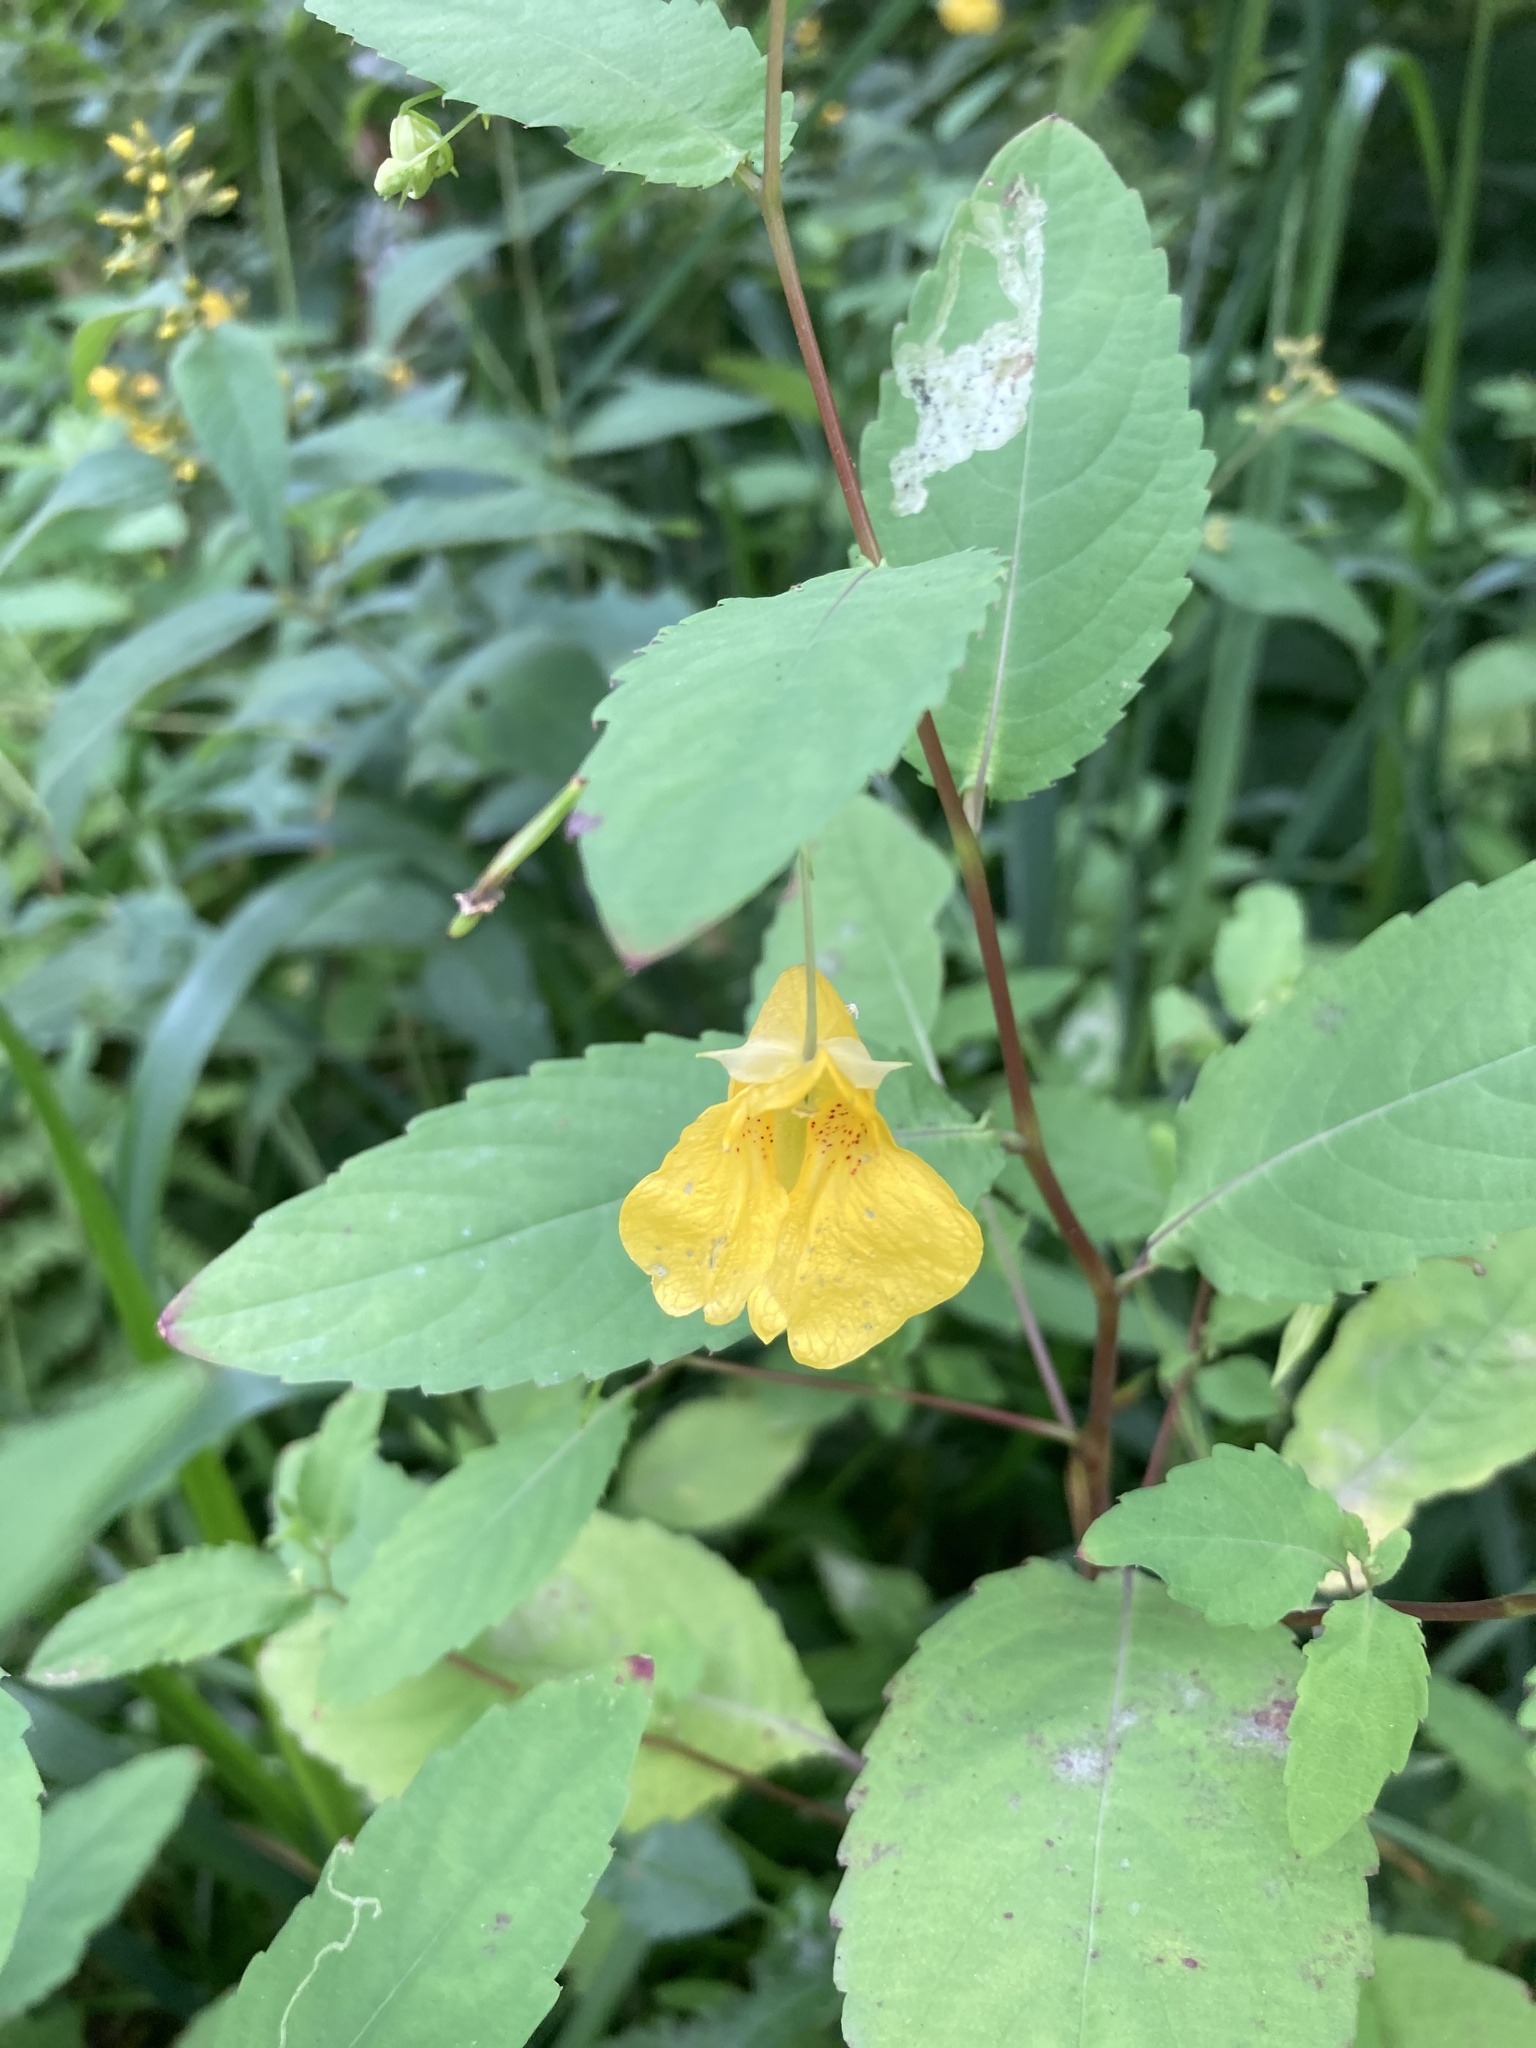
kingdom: Plantae
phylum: Tracheophyta
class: Magnoliopsida
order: Ericales
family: Balsaminaceae
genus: Impatiens
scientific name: Impatiens noli-tangere
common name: Touch-me-not balsam
